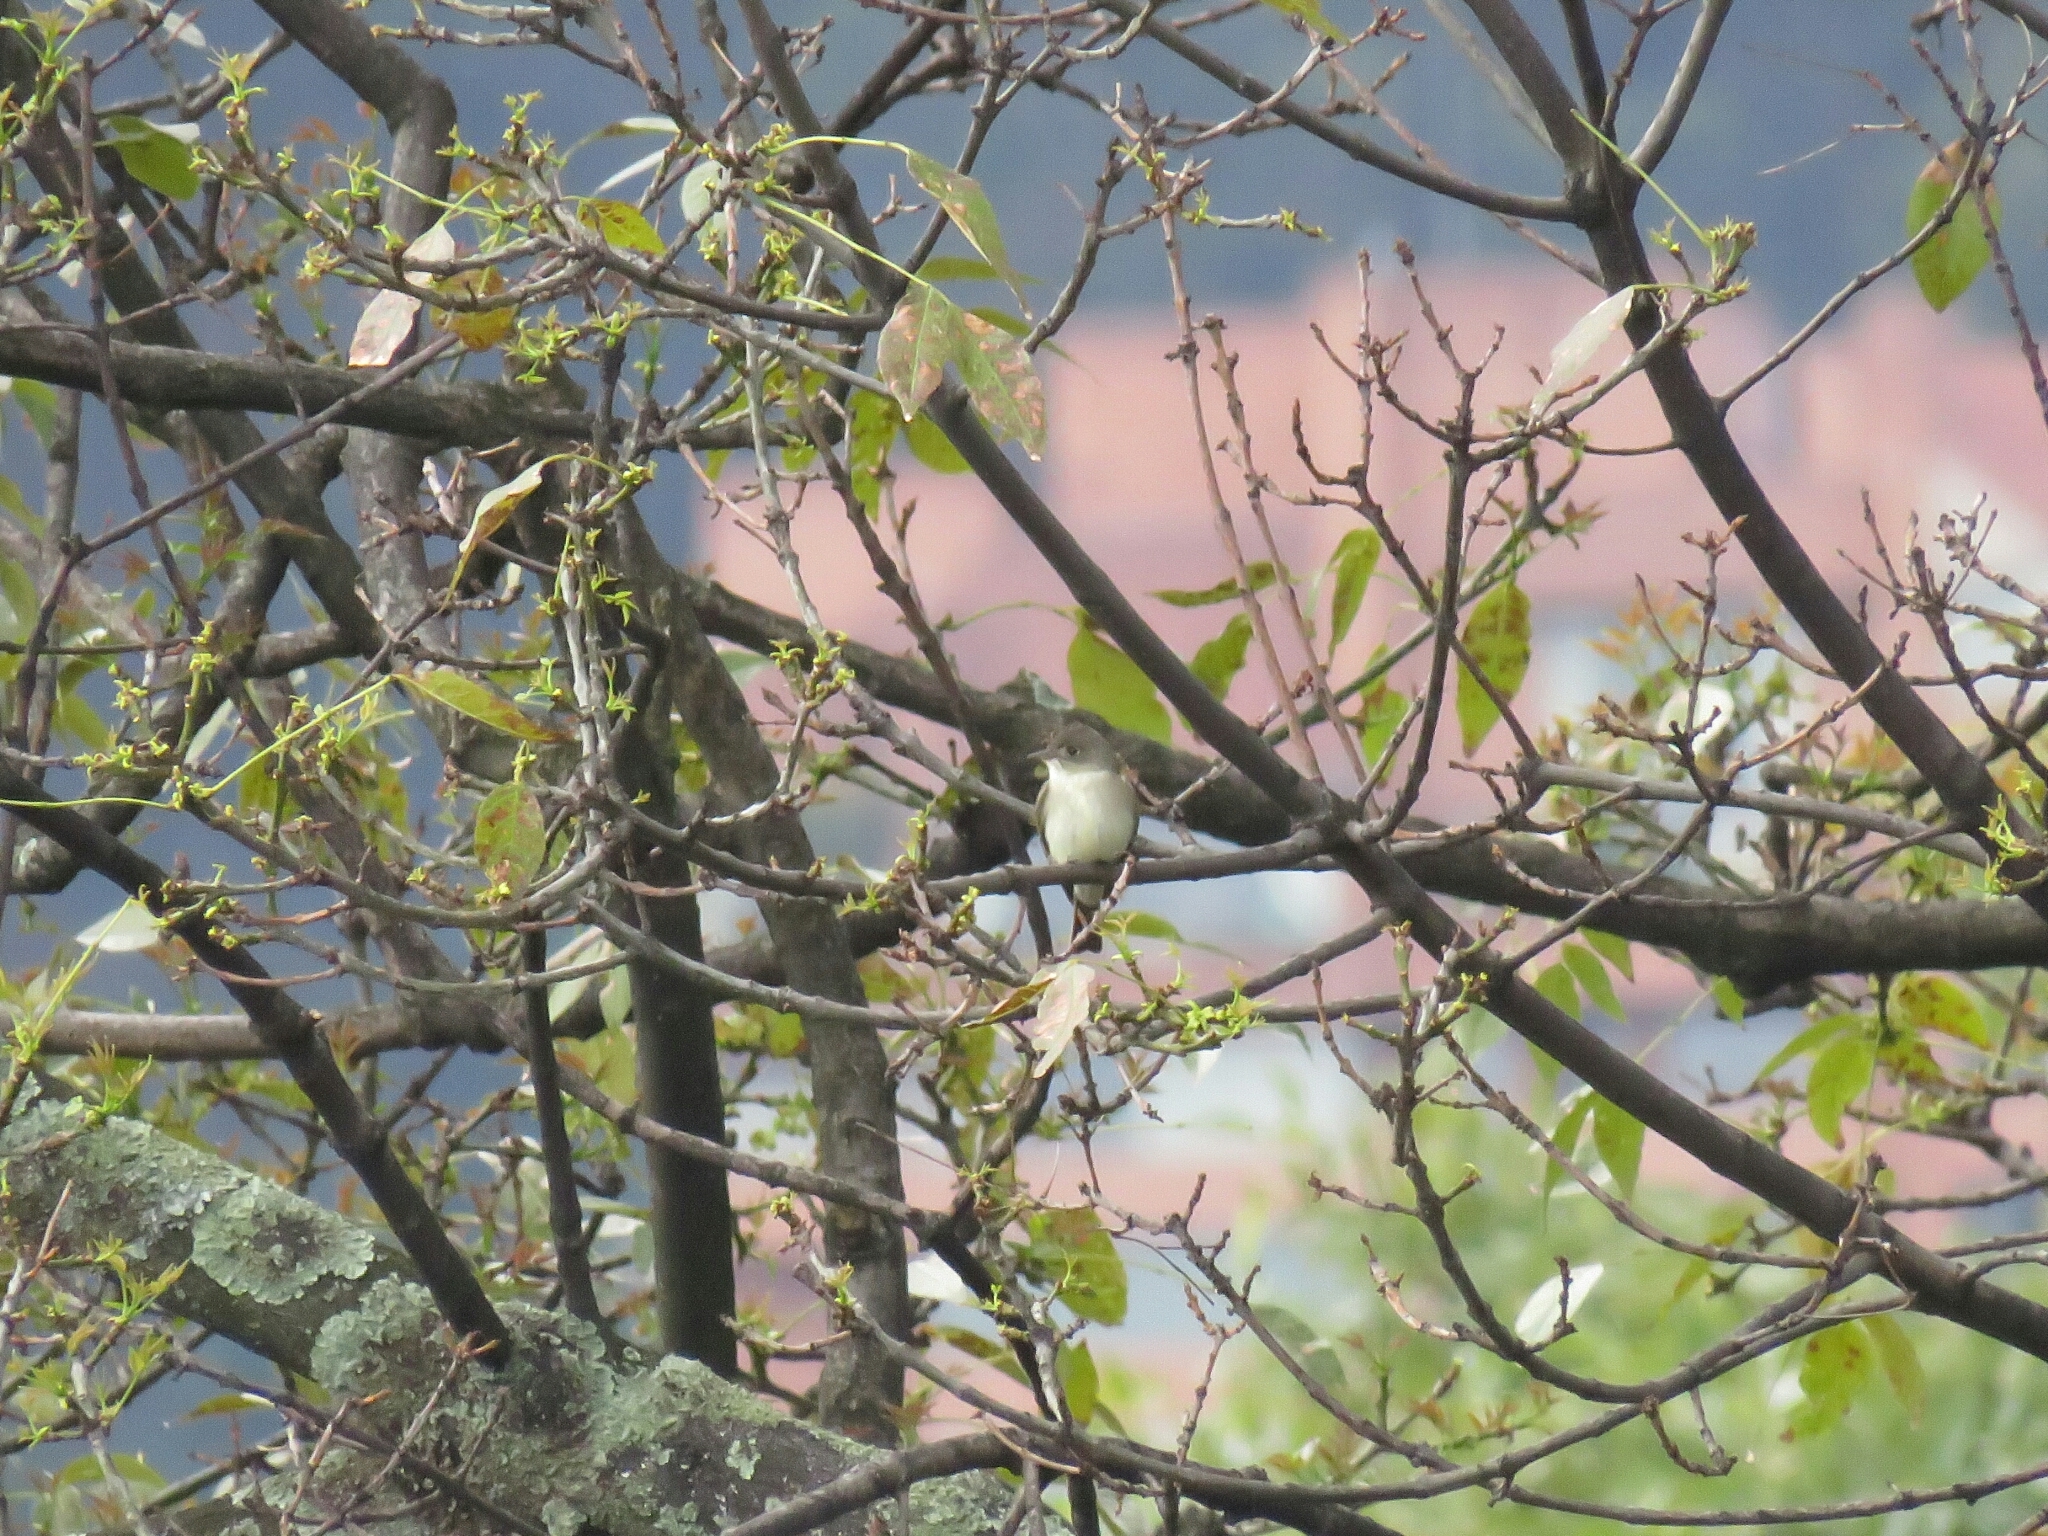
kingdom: Animalia
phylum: Chordata
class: Aves
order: Passeriformes
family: Tyrannidae
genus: Contopus
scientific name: Contopus virens
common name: Eastern wood-pewee
